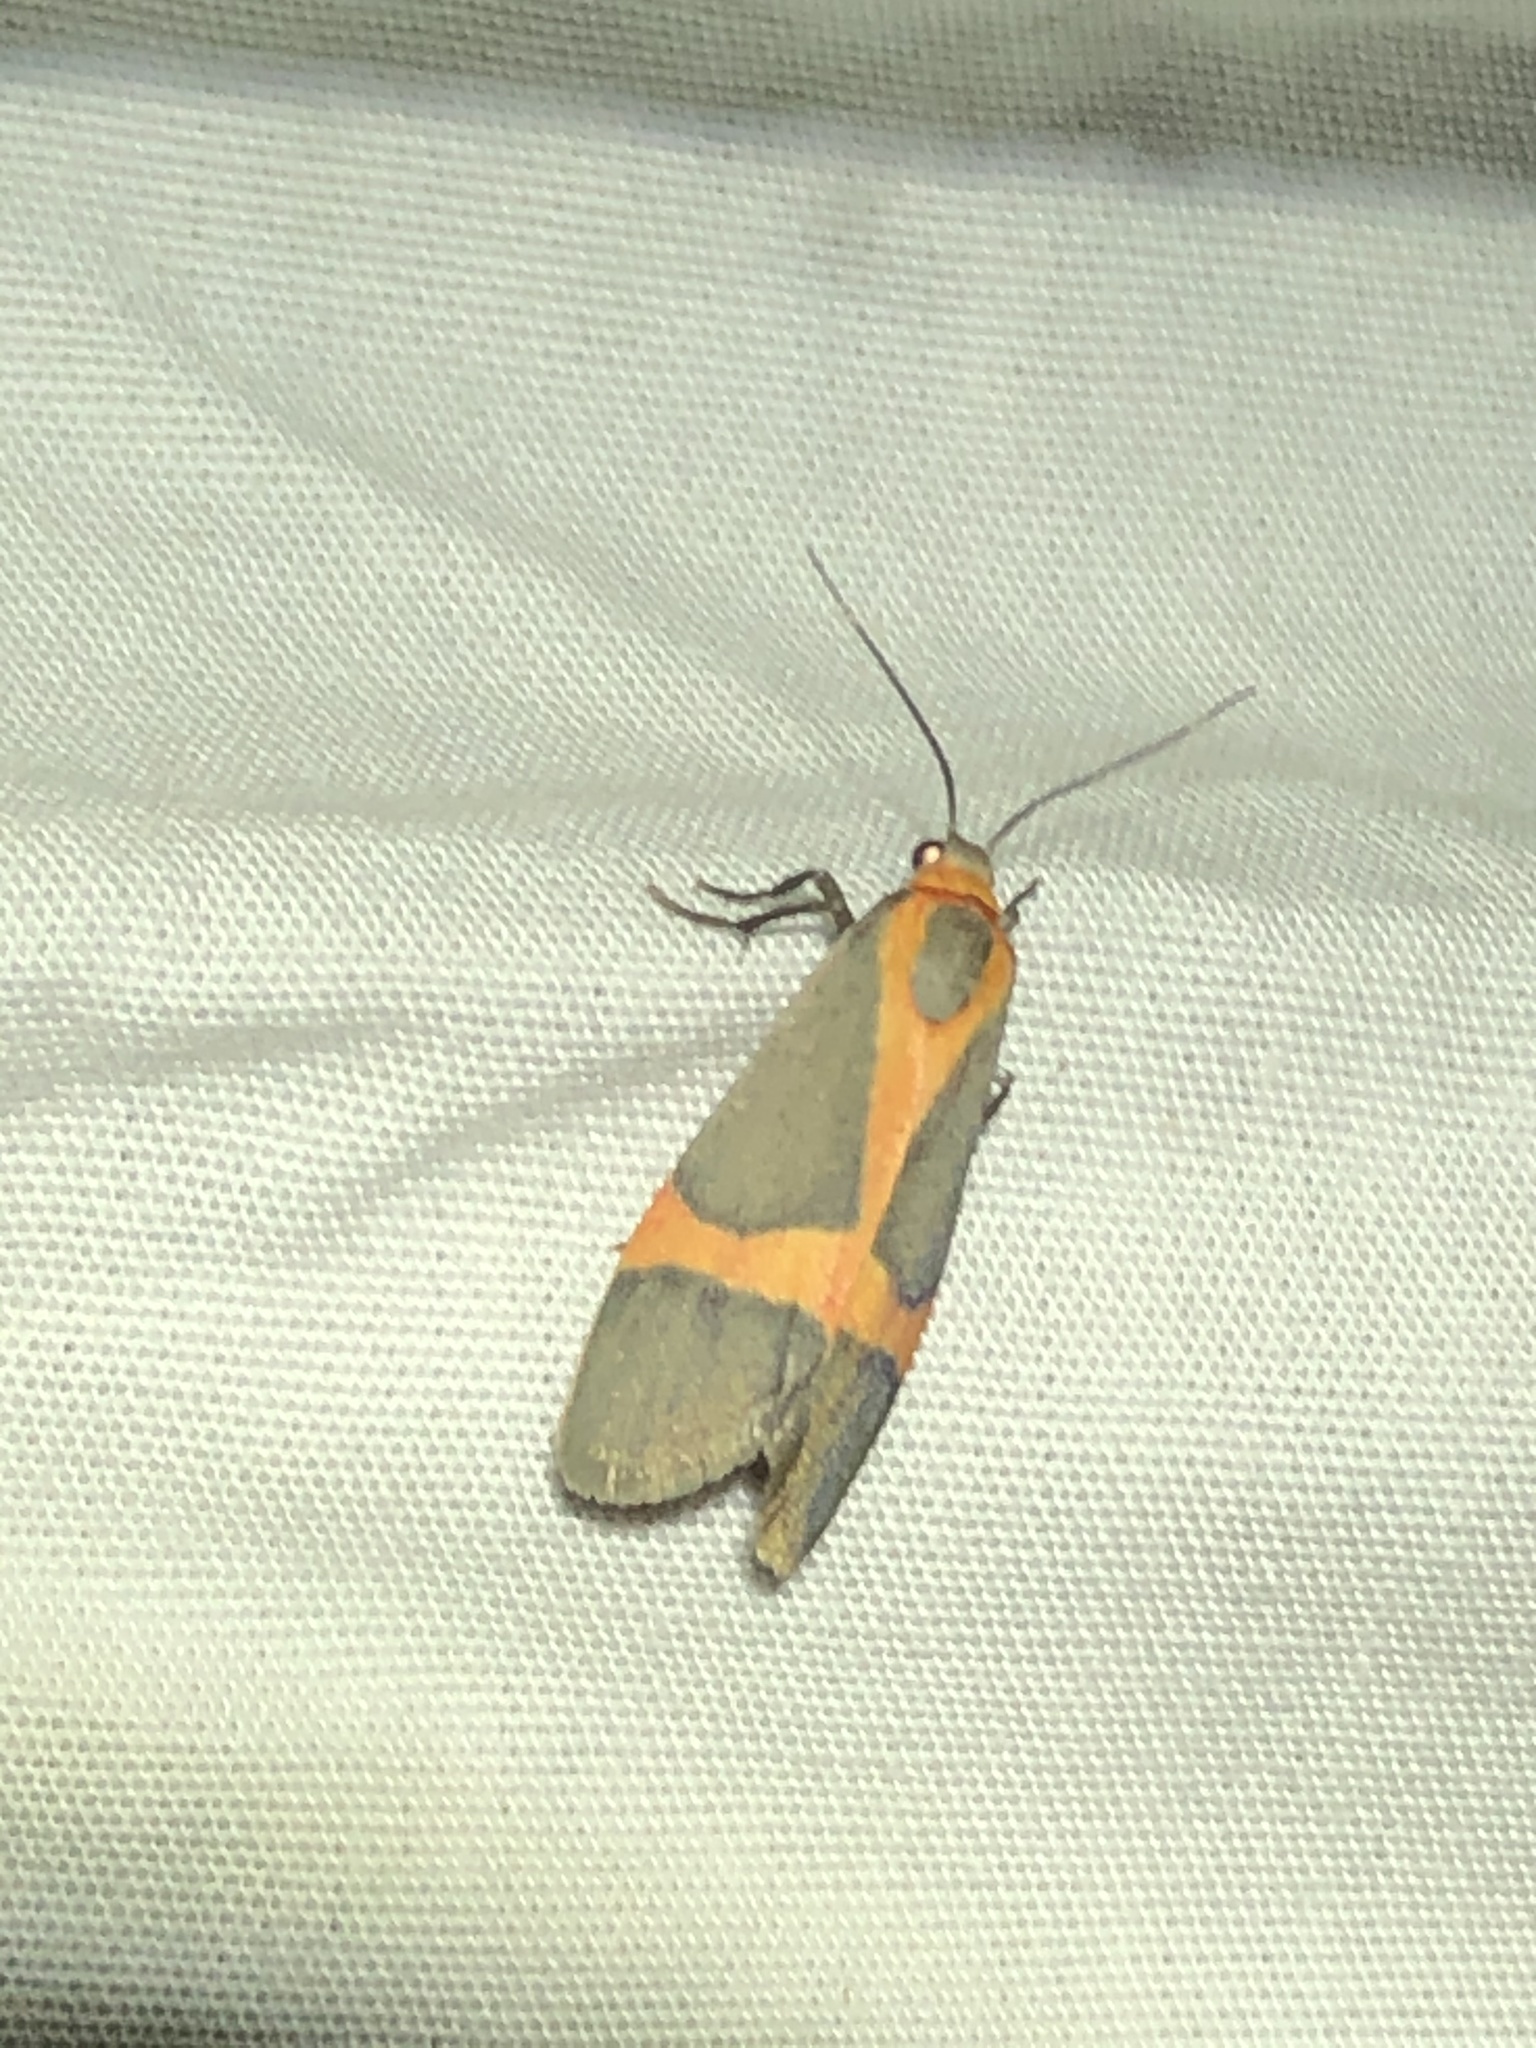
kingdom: Animalia
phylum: Arthropoda
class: Insecta
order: Lepidoptera
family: Erebidae
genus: Cisthene
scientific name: Cisthene martini
